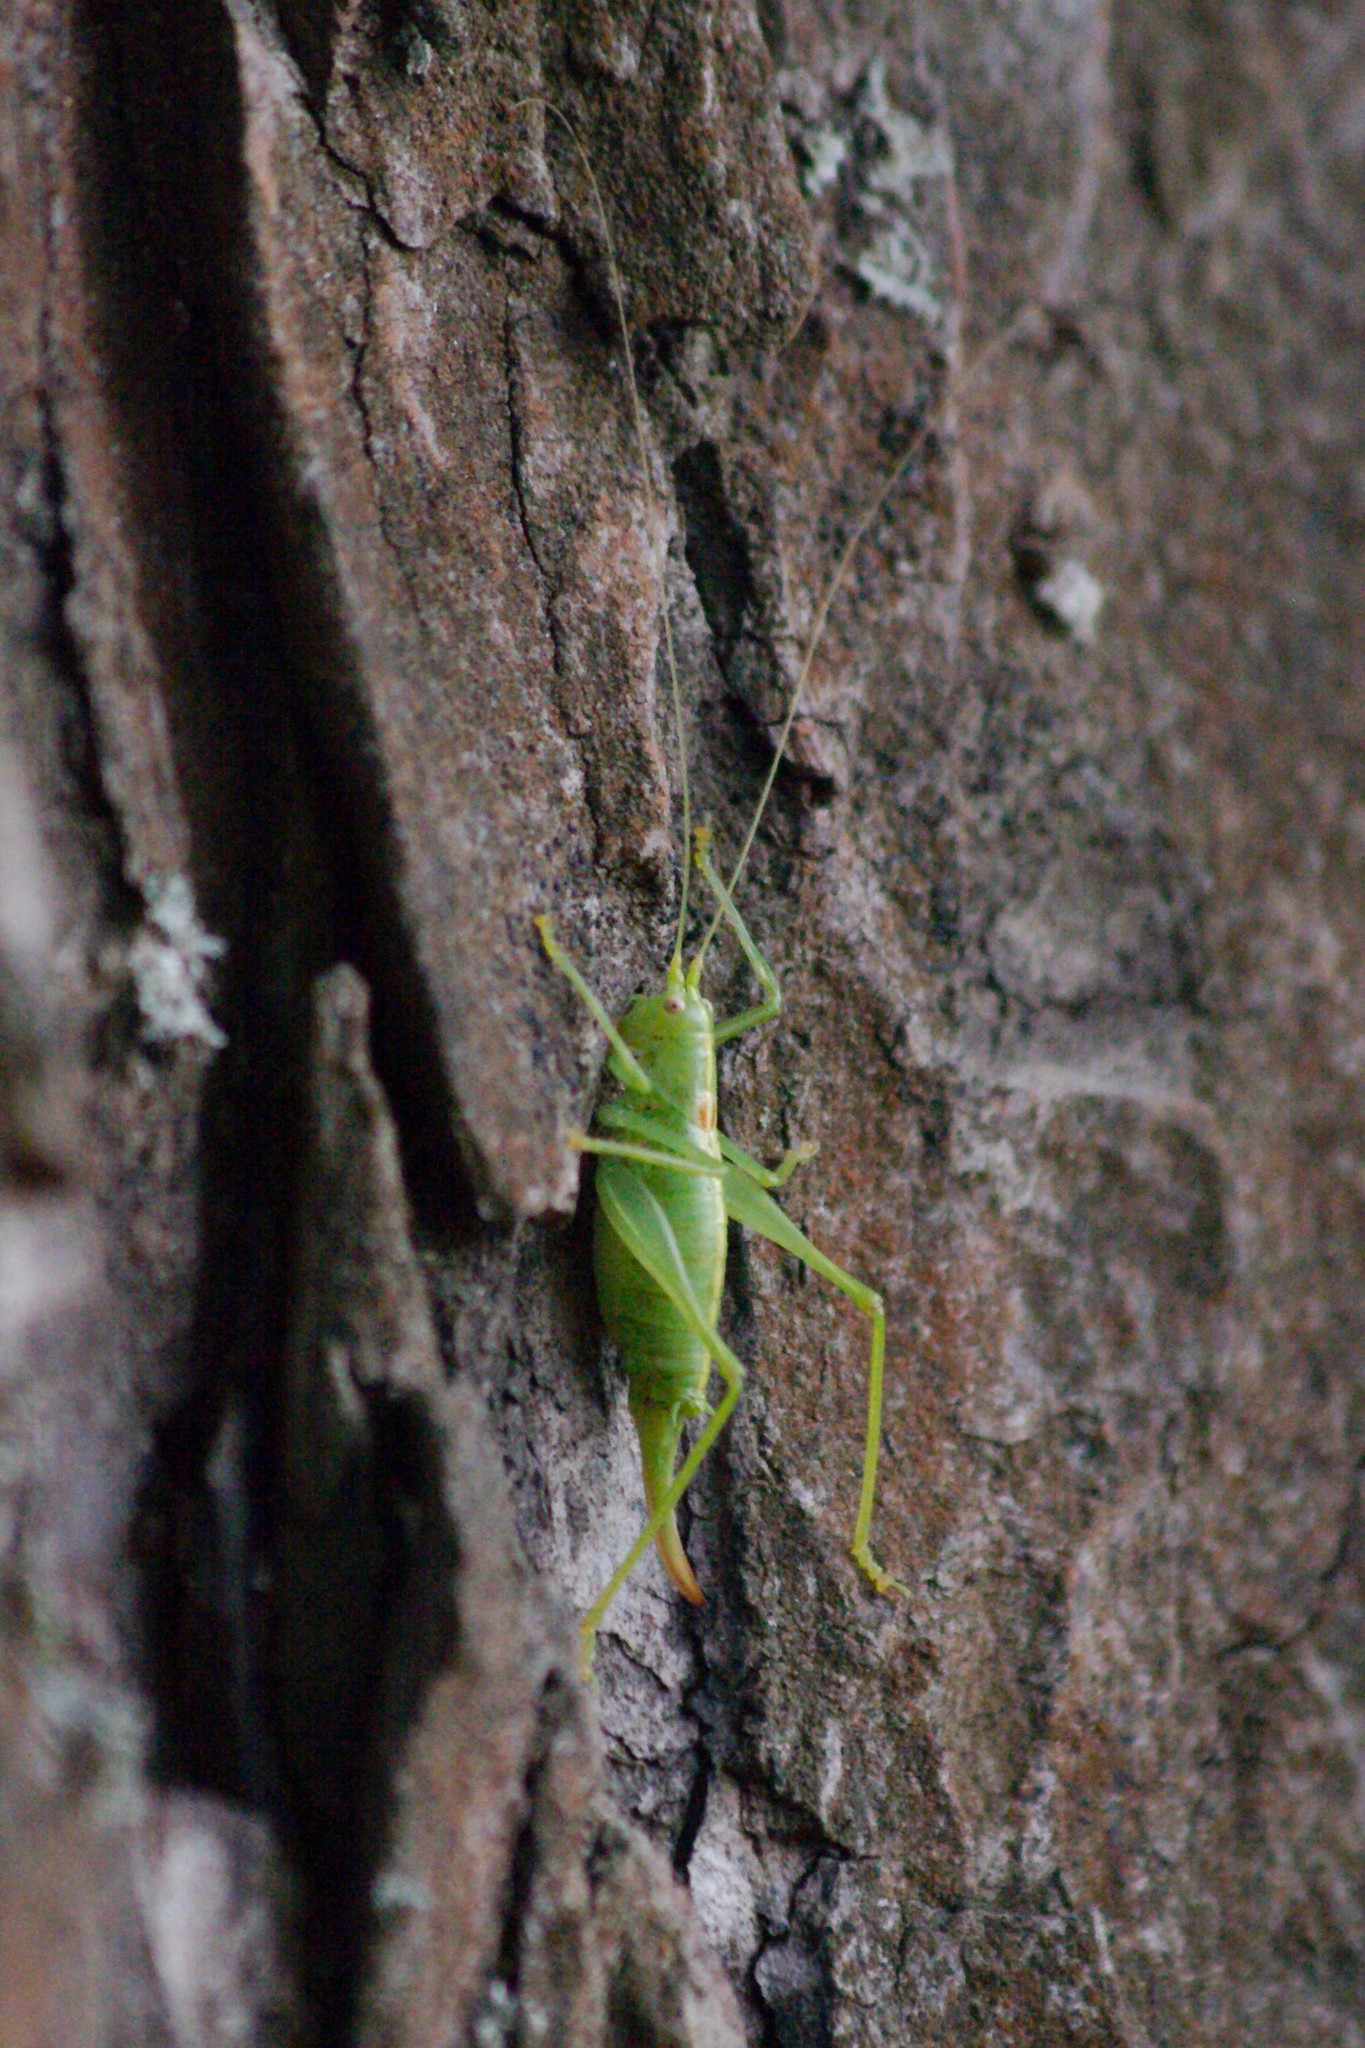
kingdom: Animalia
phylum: Arthropoda
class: Insecta
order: Orthoptera
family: Tettigoniidae
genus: Meconema
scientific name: Meconema meridionale
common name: Southern oak bush-cricket
